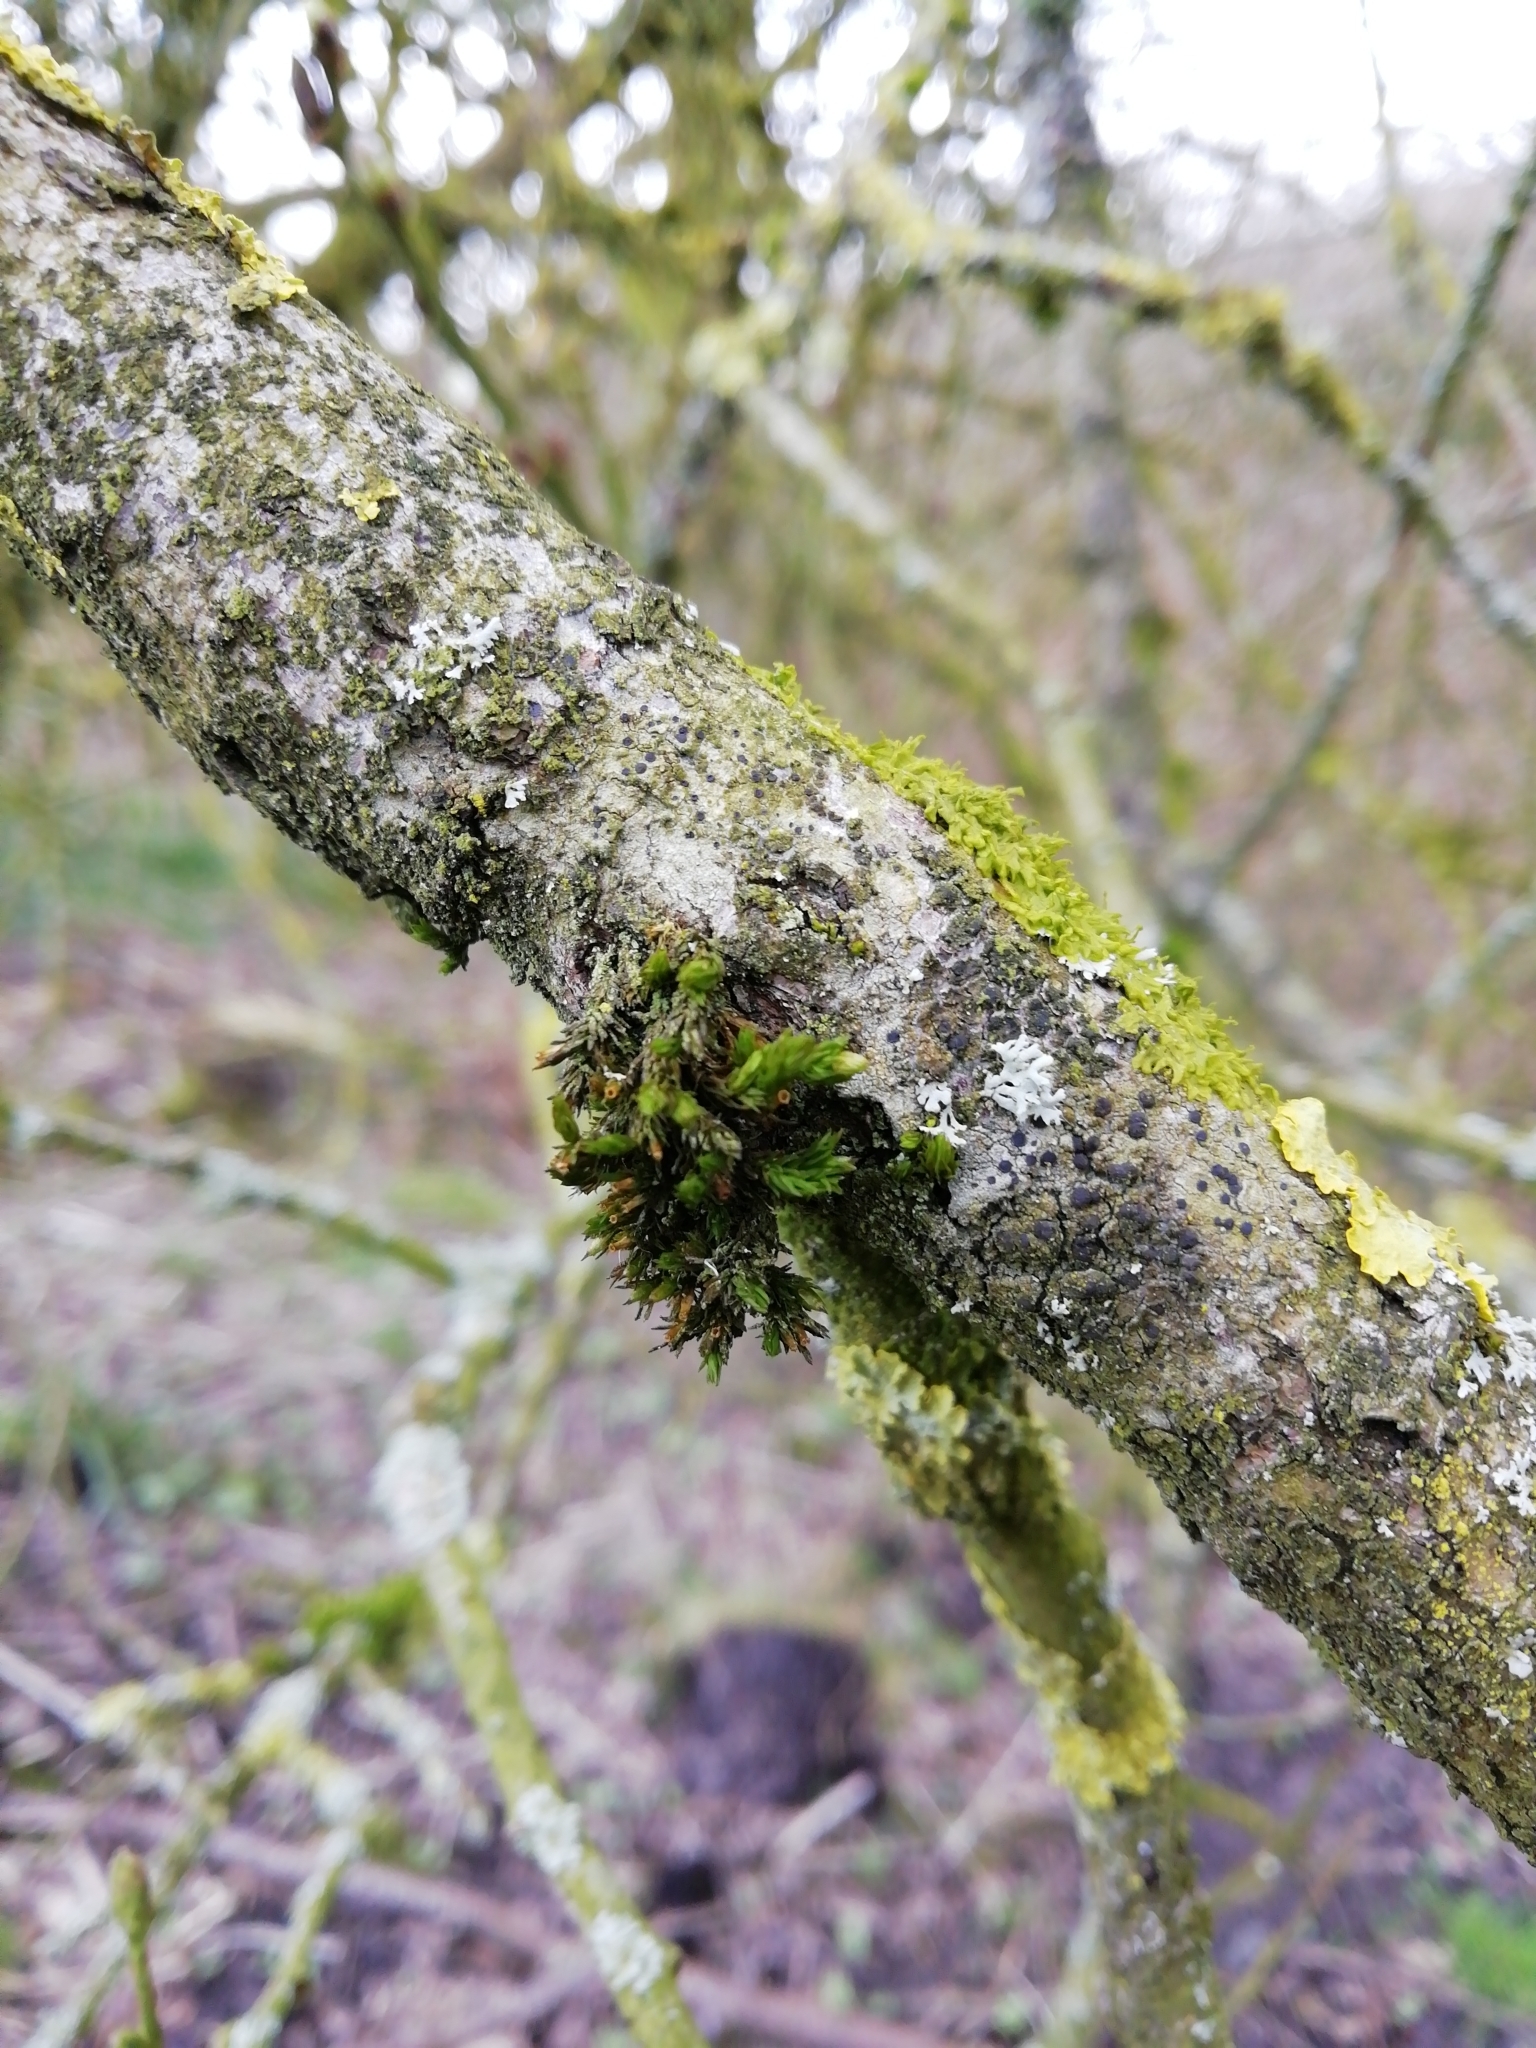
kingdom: Plantae
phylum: Bryophyta
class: Bryopsida
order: Orthotrichales
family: Orthotrichaceae
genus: Lewinskya
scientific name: Lewinskya affinis
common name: Wood bristle-moss
